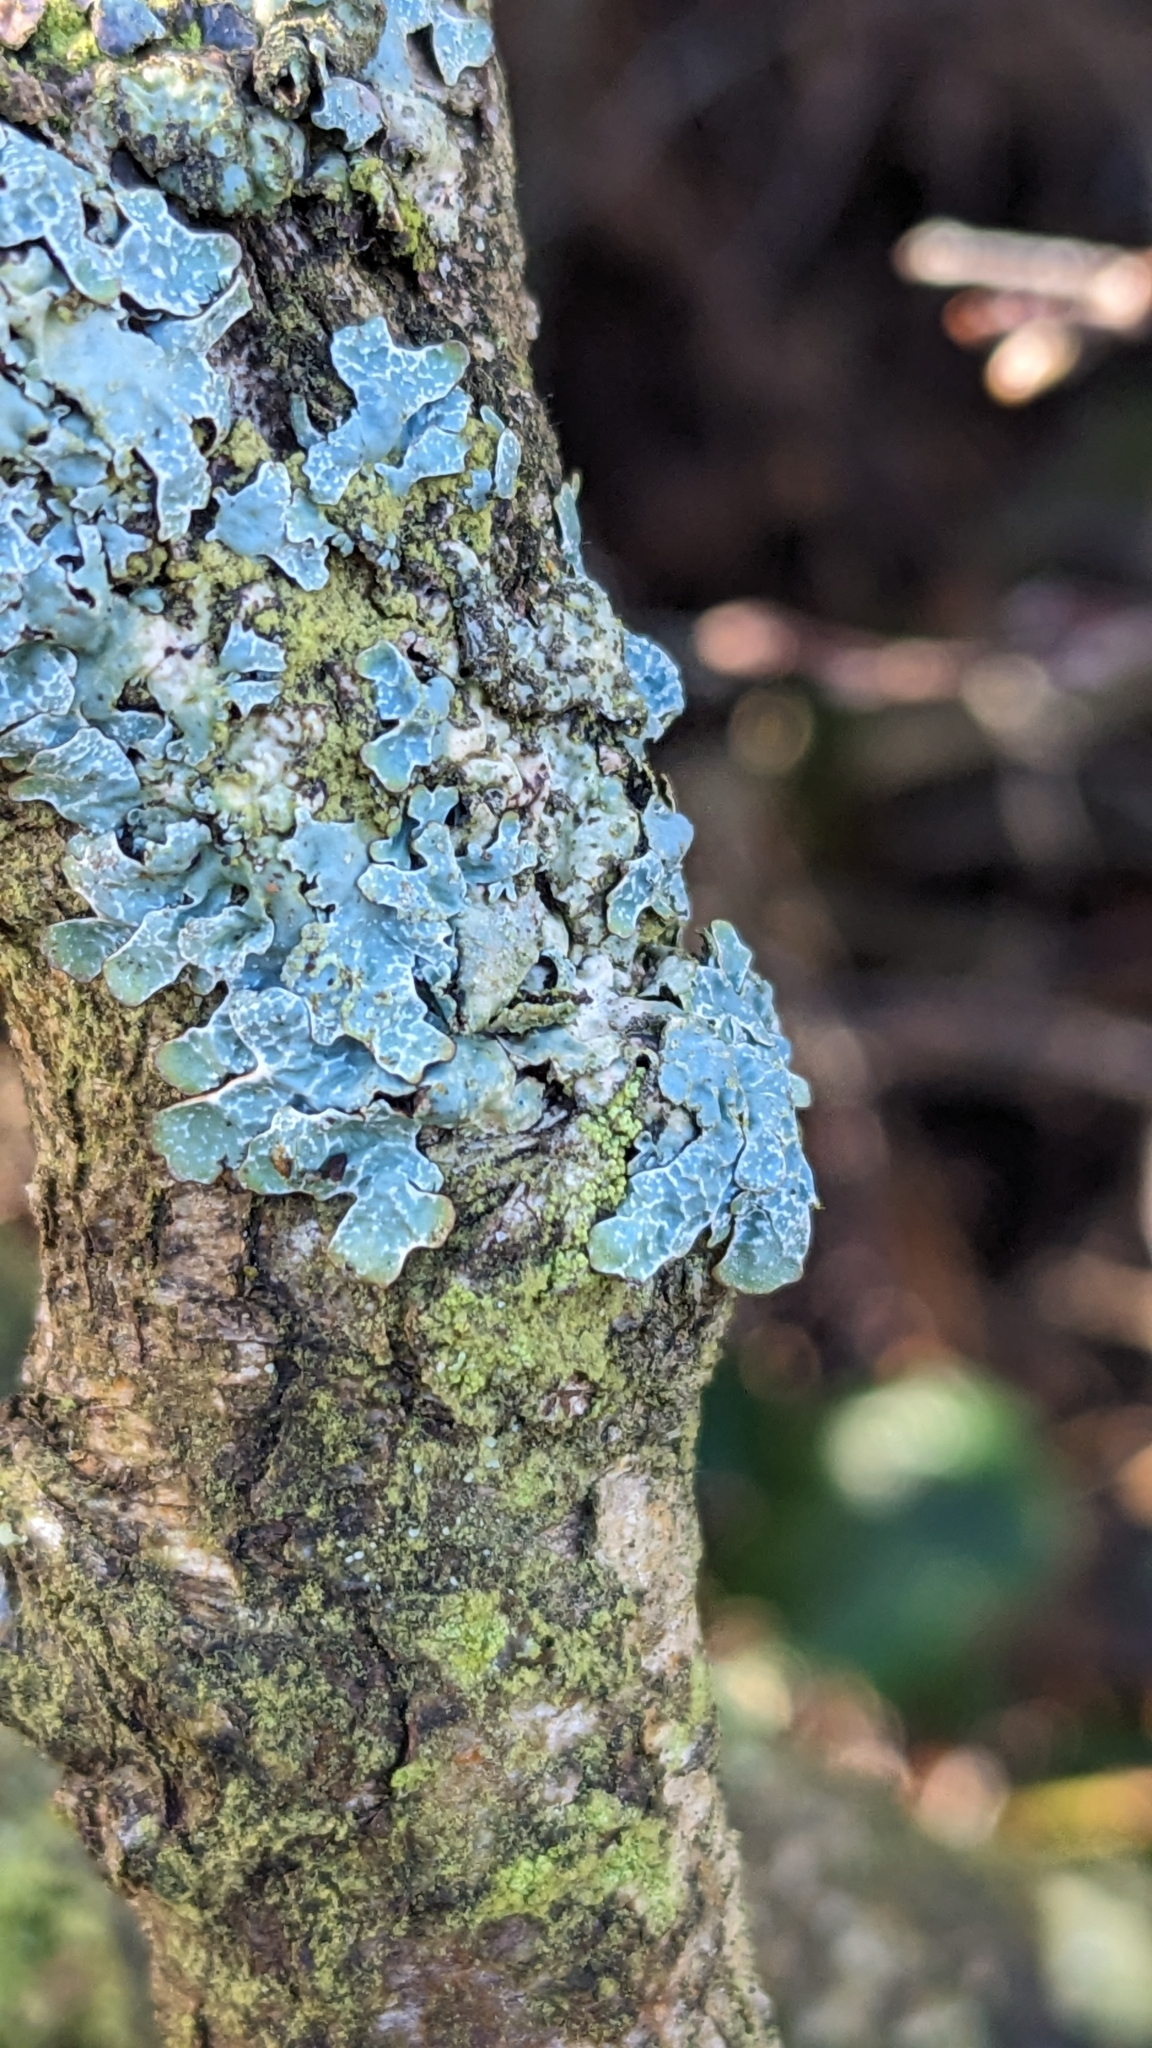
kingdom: Fungi
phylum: Ascomycota
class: Lecanoromycetes
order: Lecanorales
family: Parmeliaceae
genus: Parmelia
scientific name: Parmelia sulcata
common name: Netted shield lichen
